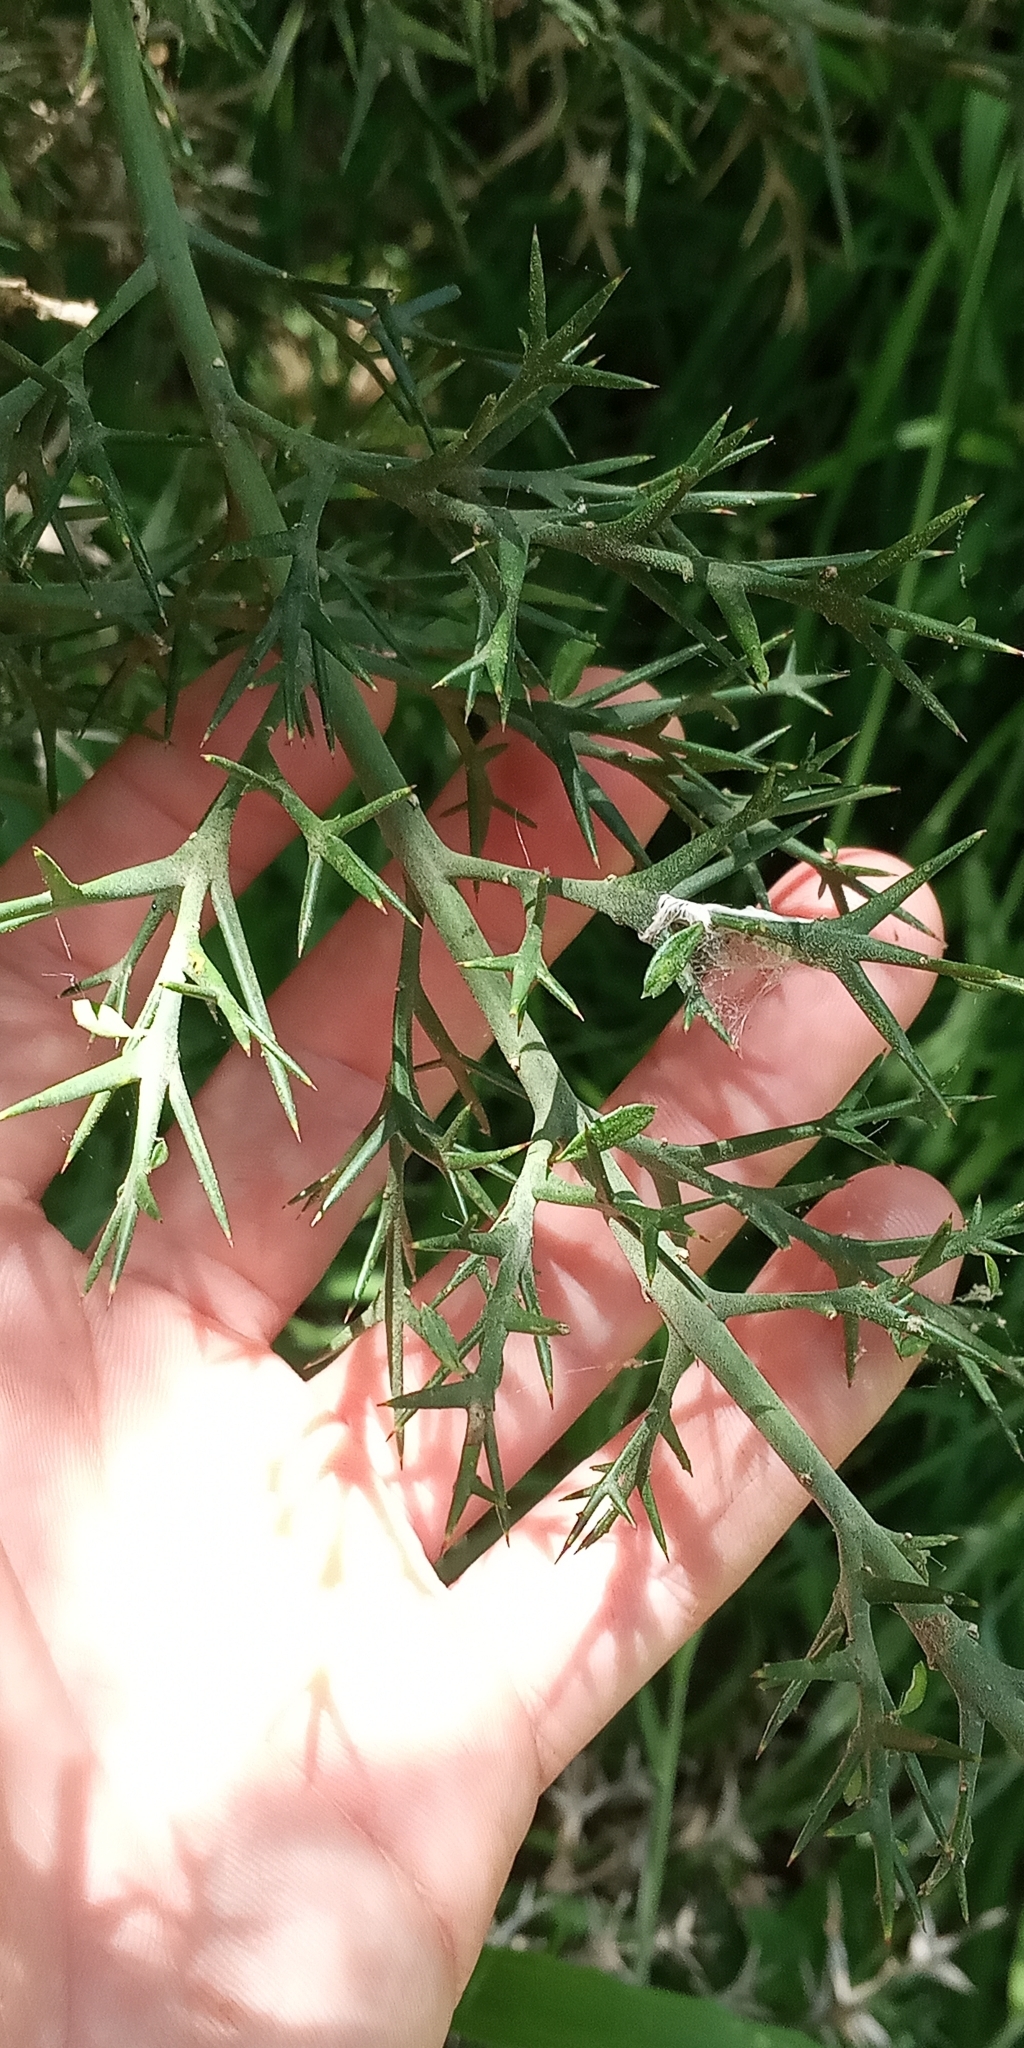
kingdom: Plantae
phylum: Tracheophyta
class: Magnoliopsida
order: Rosales
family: Rhamnaceae
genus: Colletia
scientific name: Colletia paradoxa
